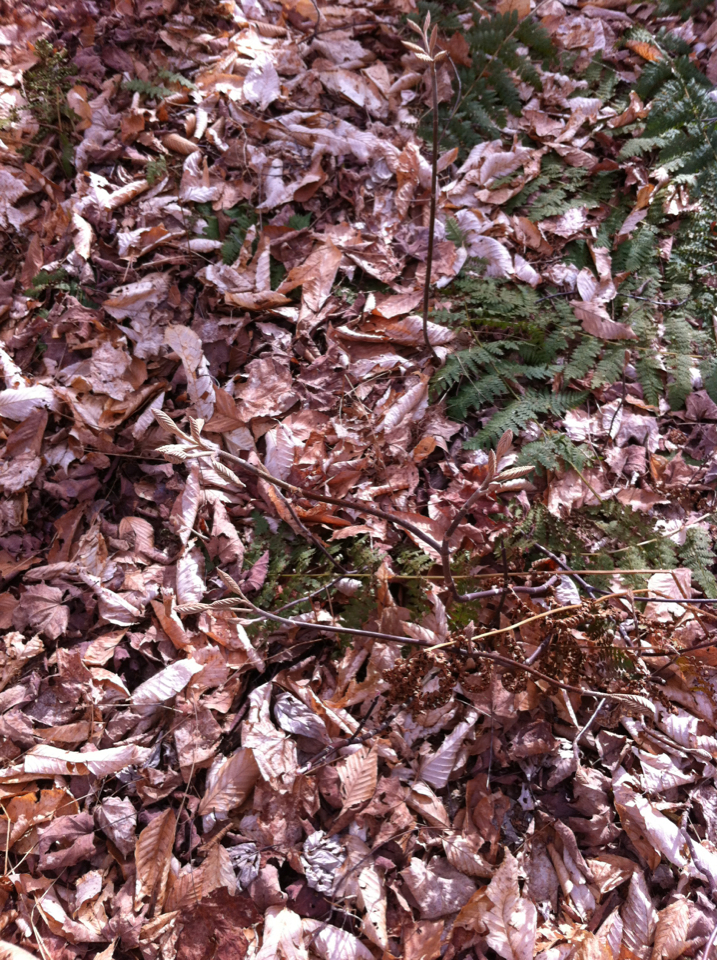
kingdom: Plantae
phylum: Tracheophyta
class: Magnoliopsida
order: Dipsacales
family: Viburnaceae
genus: Viburnum
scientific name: Viburnum lantanoides
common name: Hobblebush
